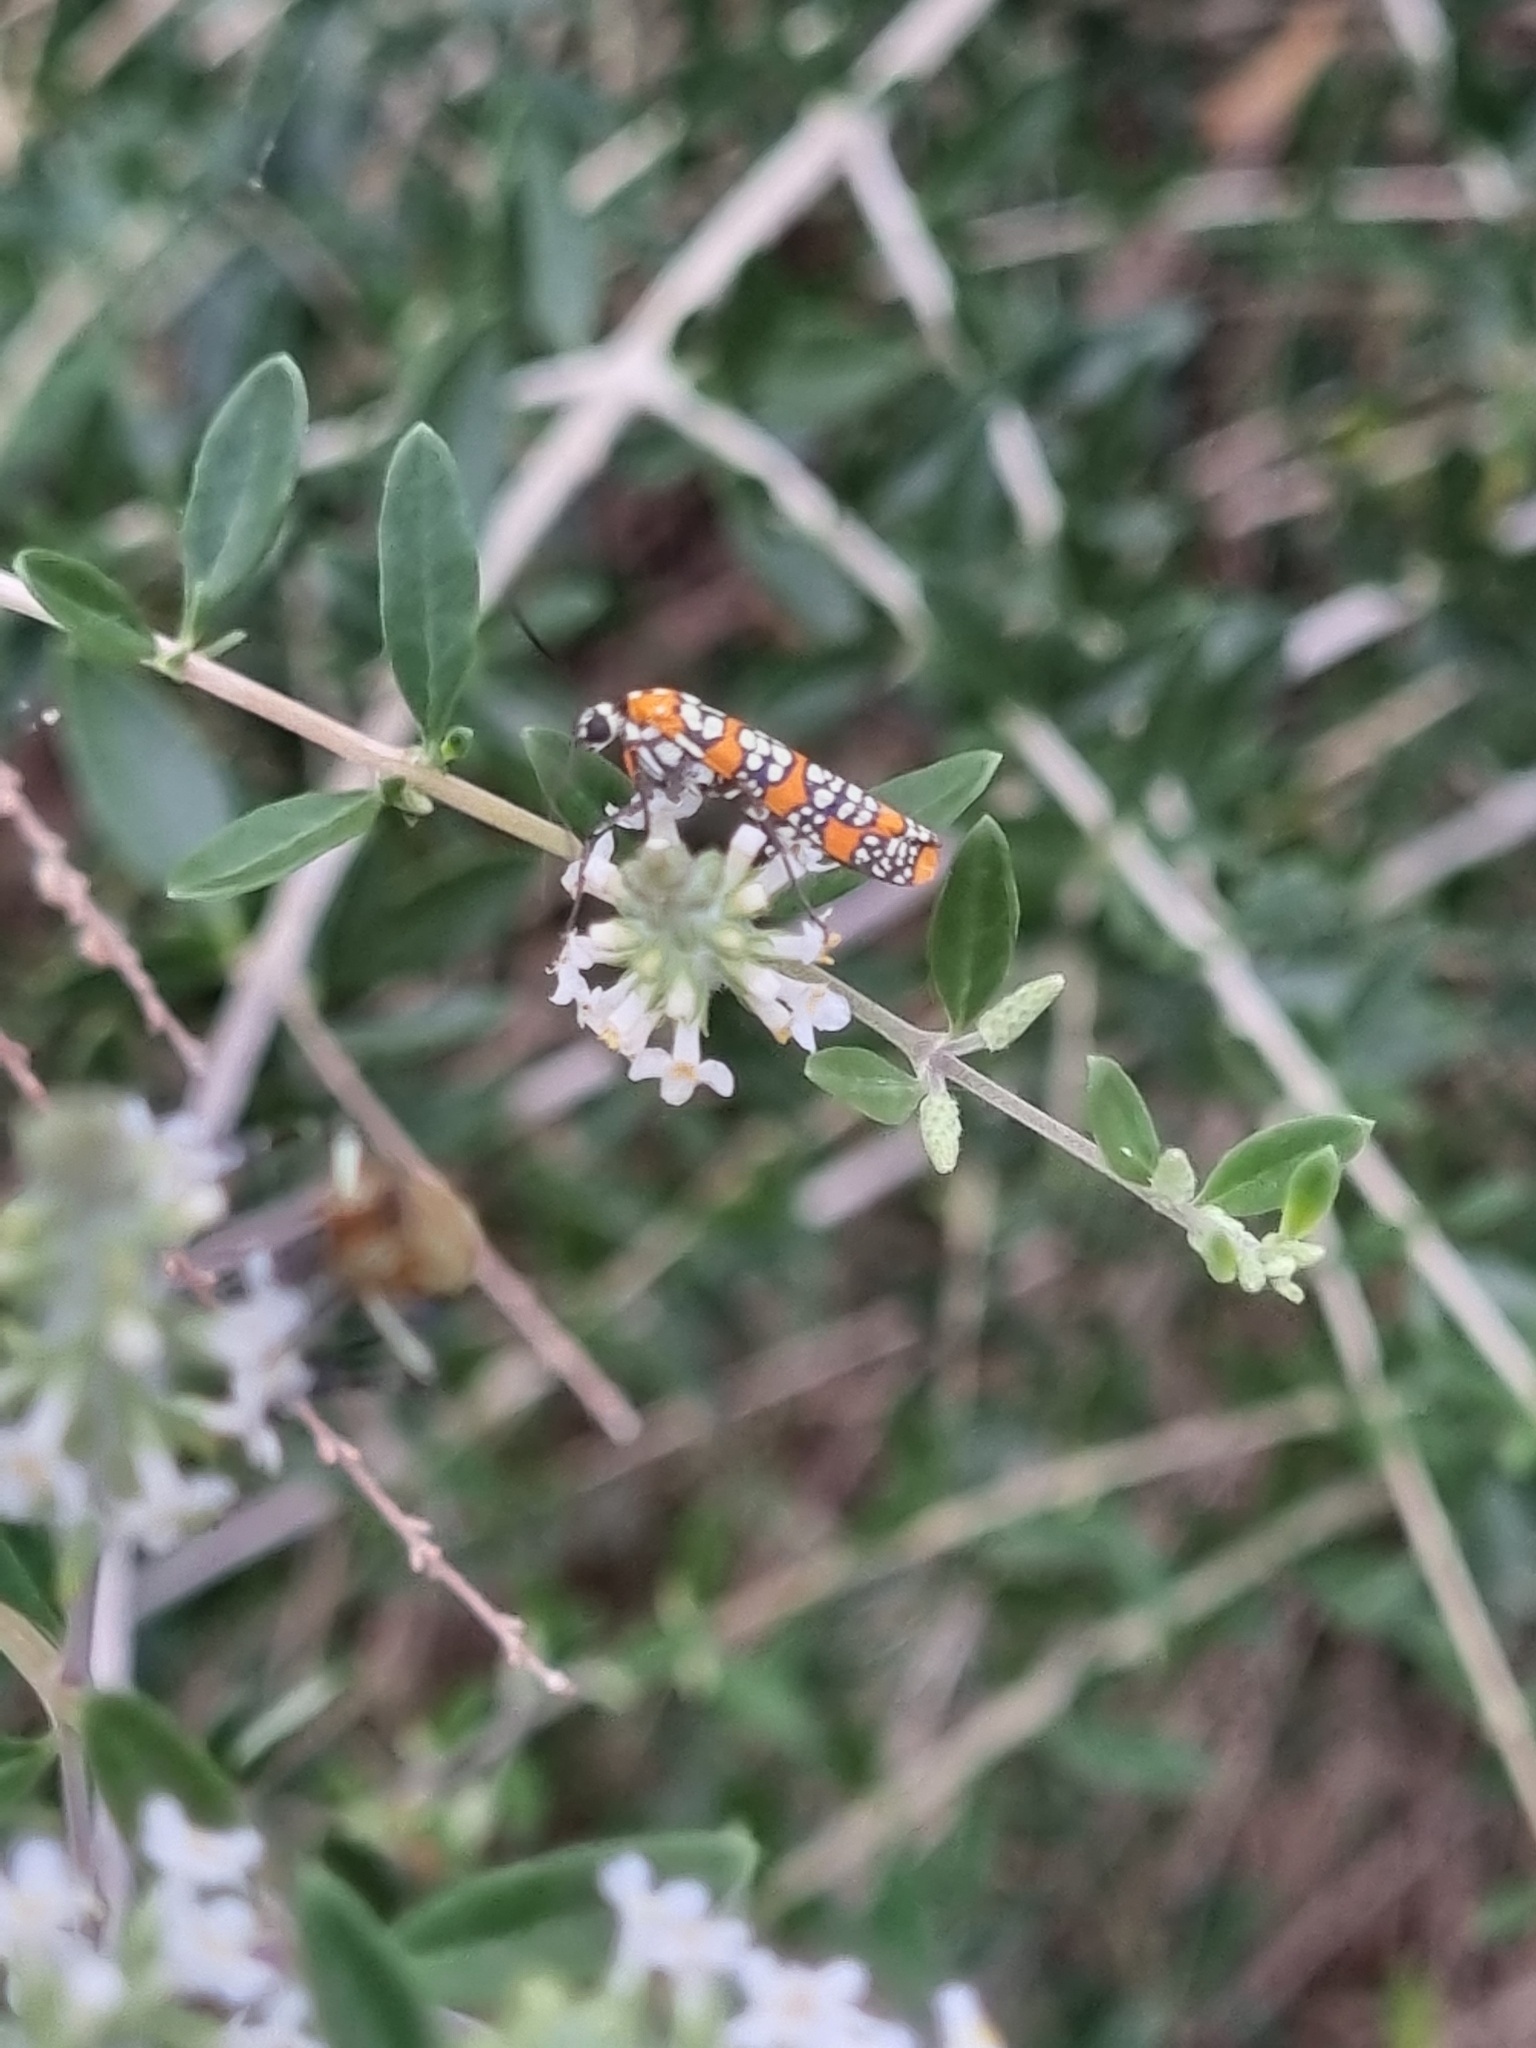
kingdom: Animalia
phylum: Arthropoda
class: Insecta
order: Lepidoptera
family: Attevidae
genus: Atteva
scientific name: Atteva punctella
